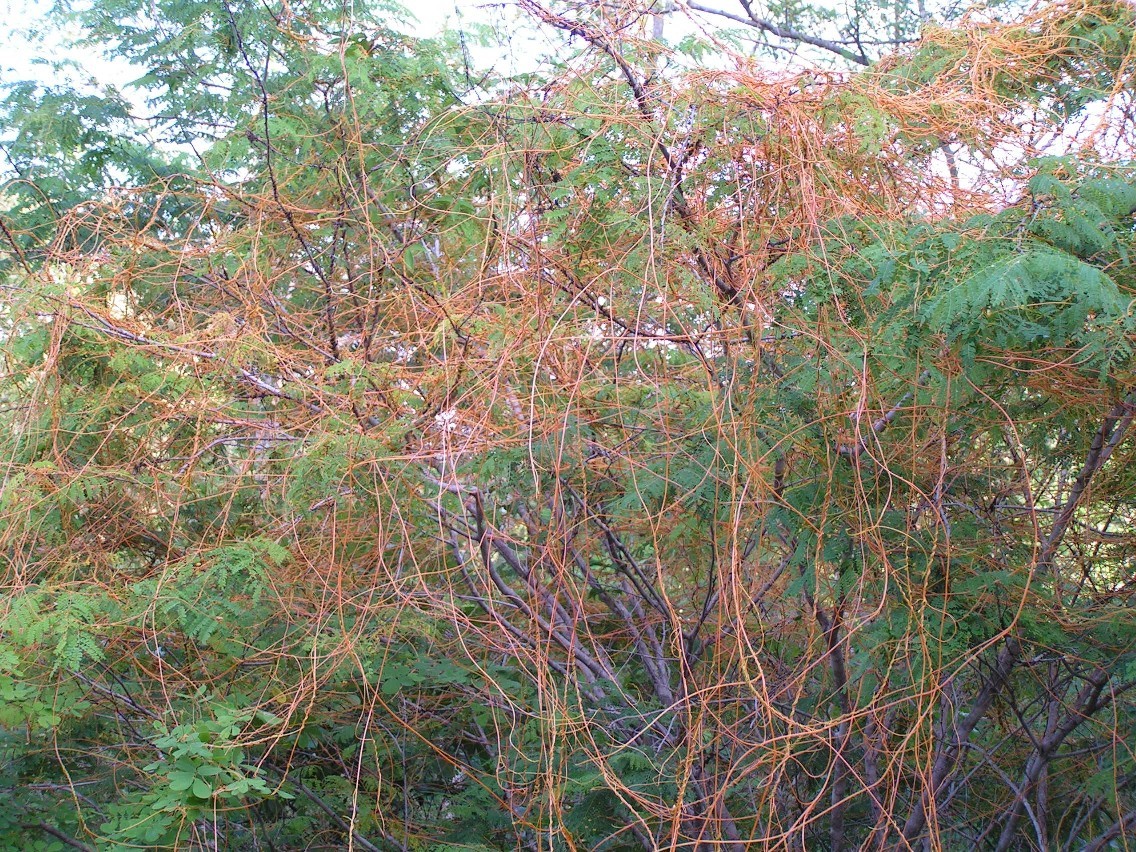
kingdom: Plantae
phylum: Tracheophyta
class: Magnoliopsida
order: Solanales
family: Convolvulaceae
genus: Cuscuta
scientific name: Cuscuta
